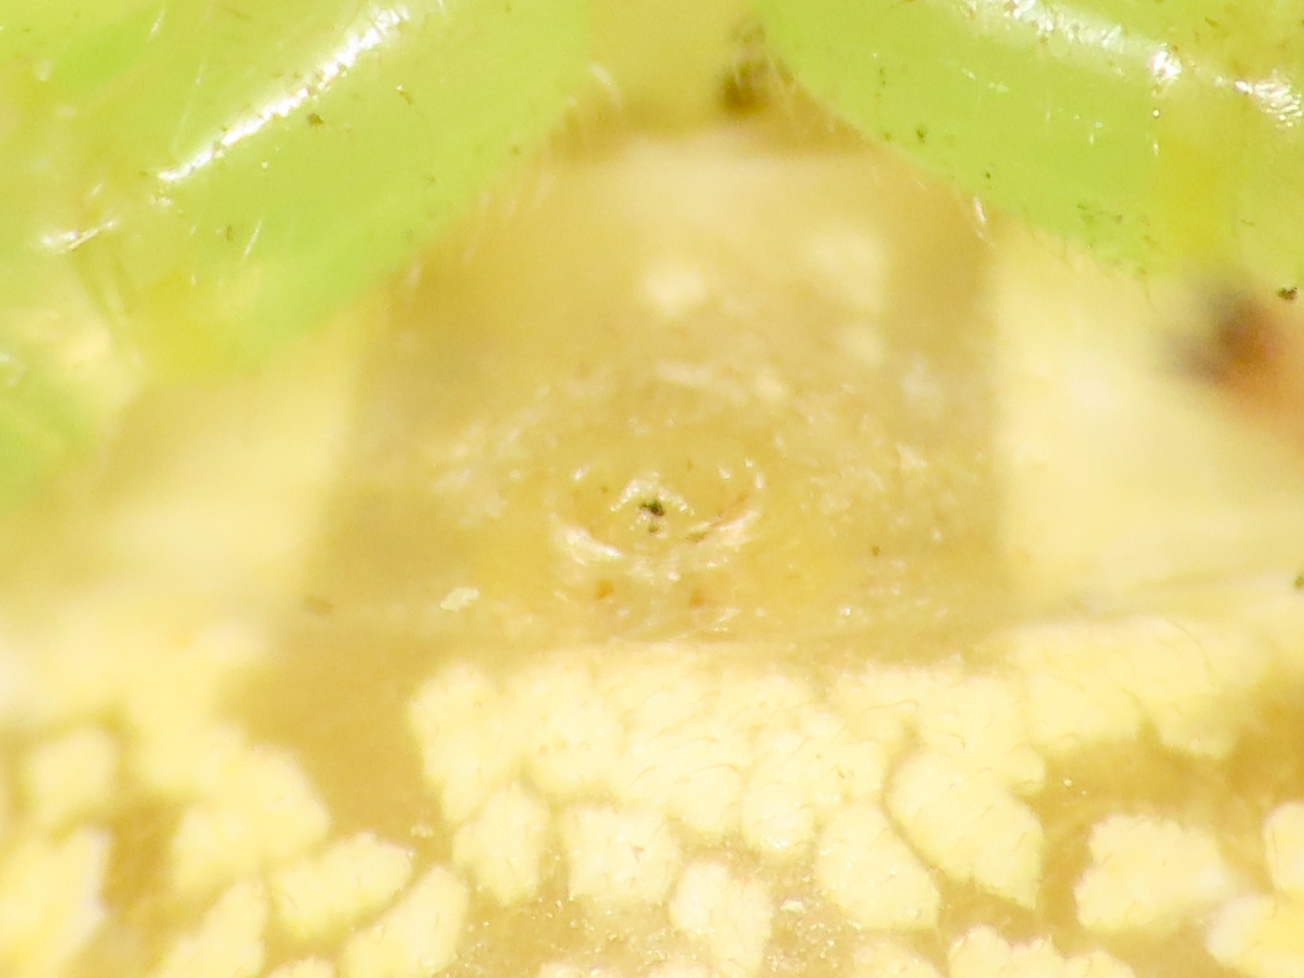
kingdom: Animalia
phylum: Arthropoda
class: Arachnida
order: Araneae
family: Thomisidae
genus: Diaea
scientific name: Diaea livens
